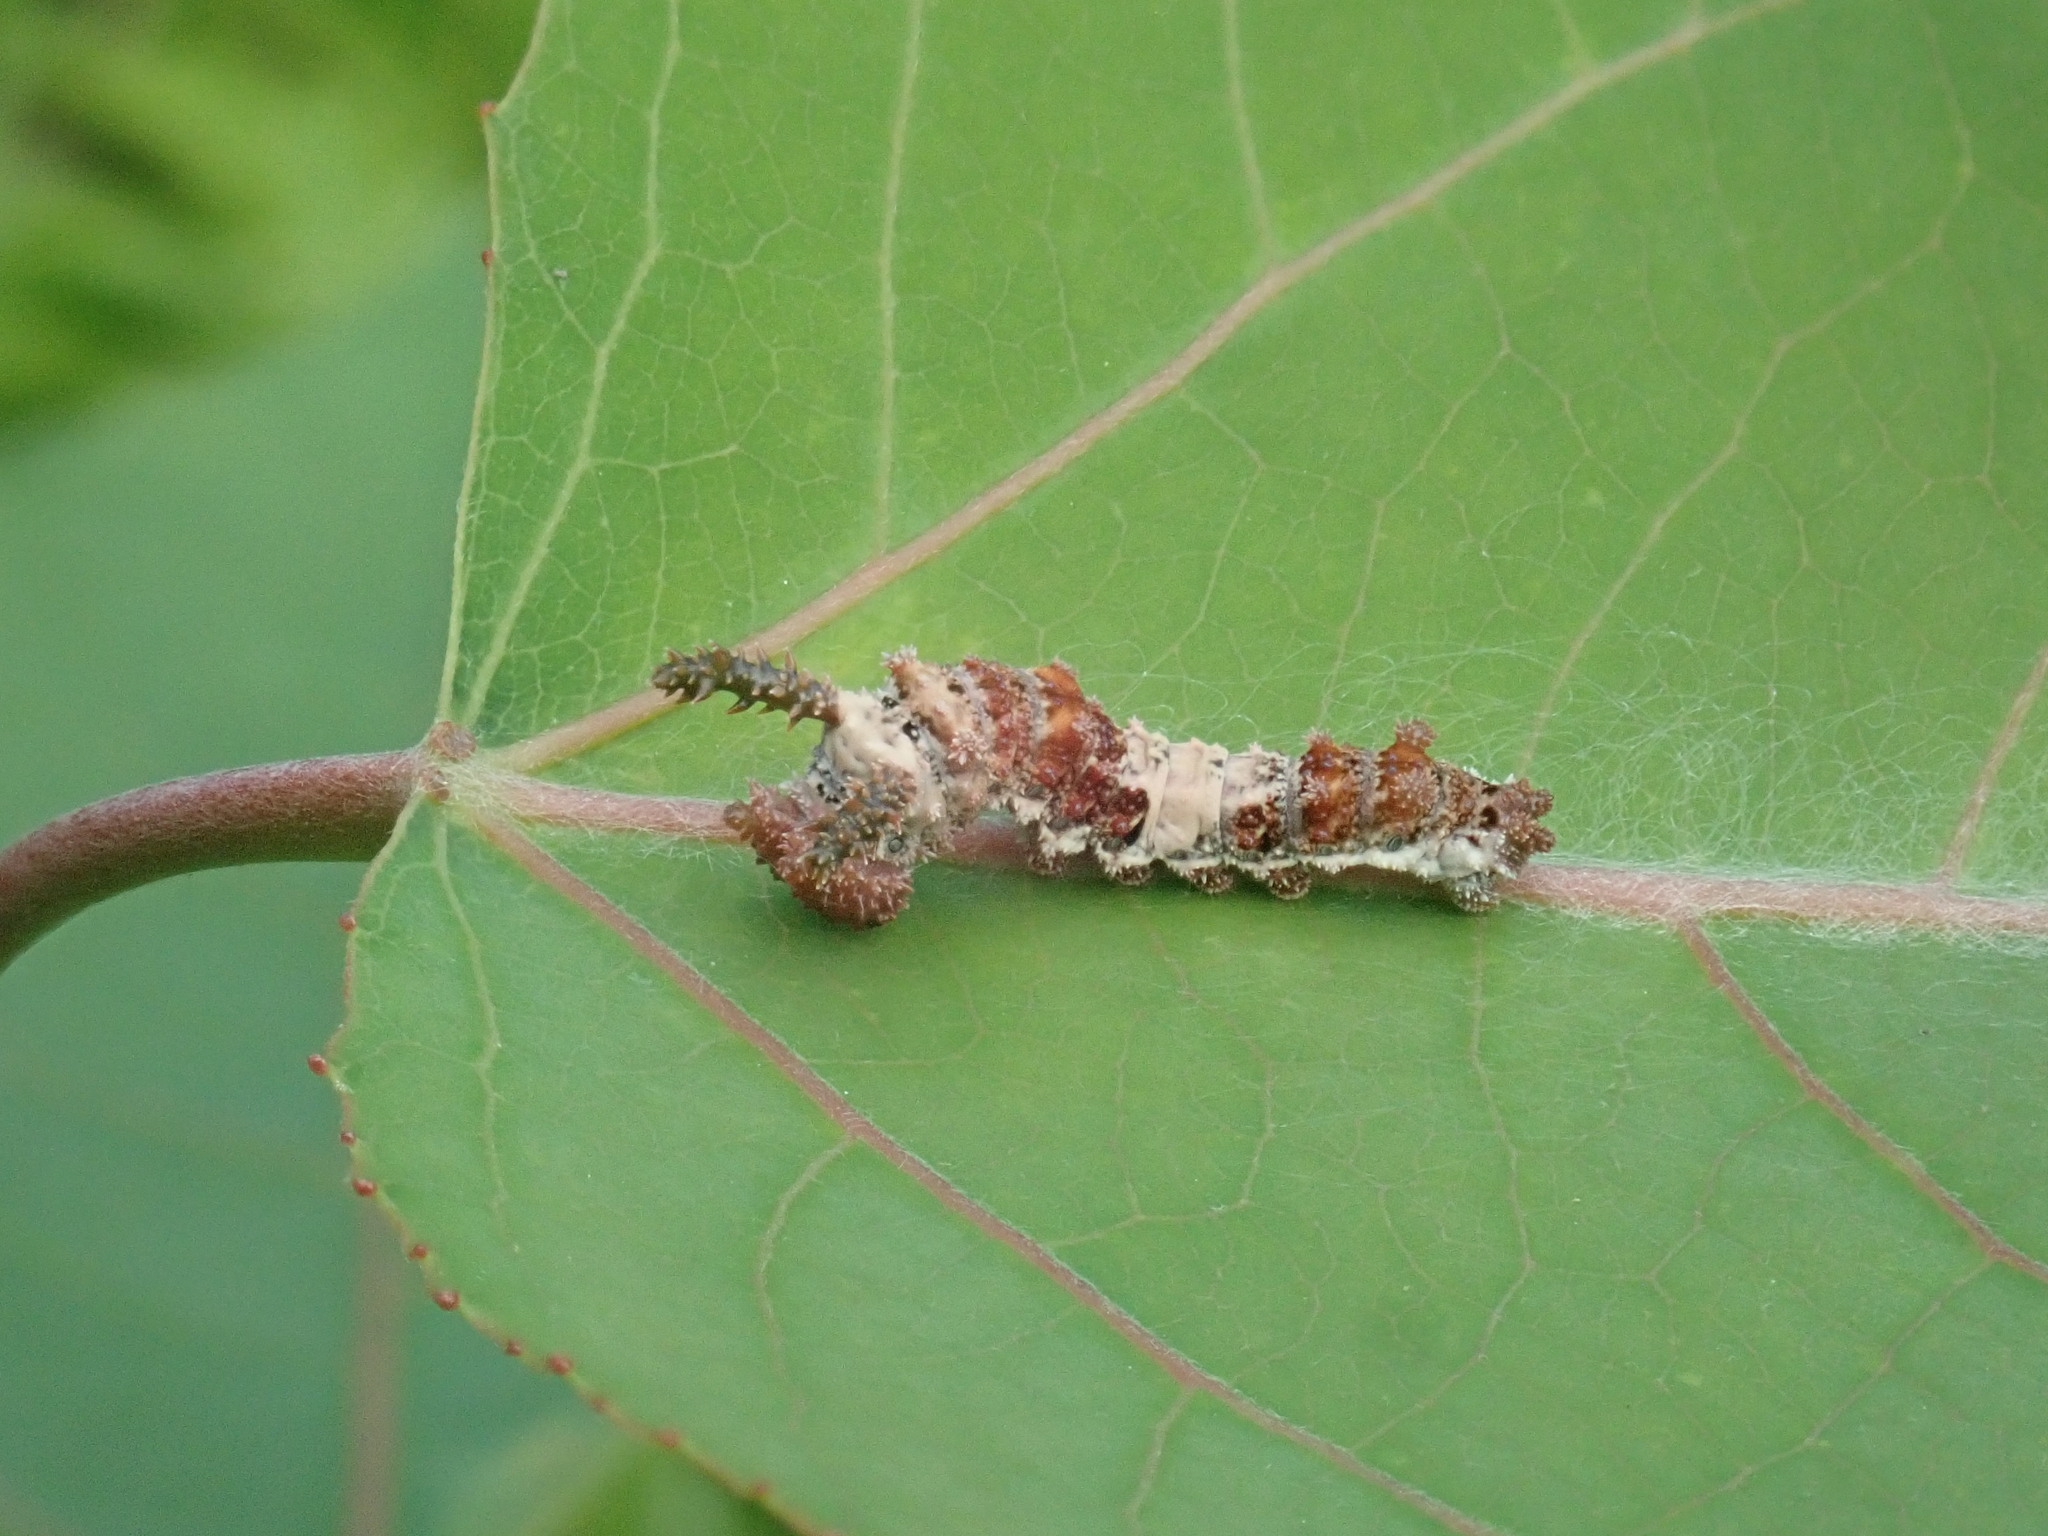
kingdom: Animalia
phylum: Arthropoda
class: Insecta
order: Lepidoptera
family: Nymphalidae
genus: Limenitis
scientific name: Limenitis archippus
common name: Viceroy
